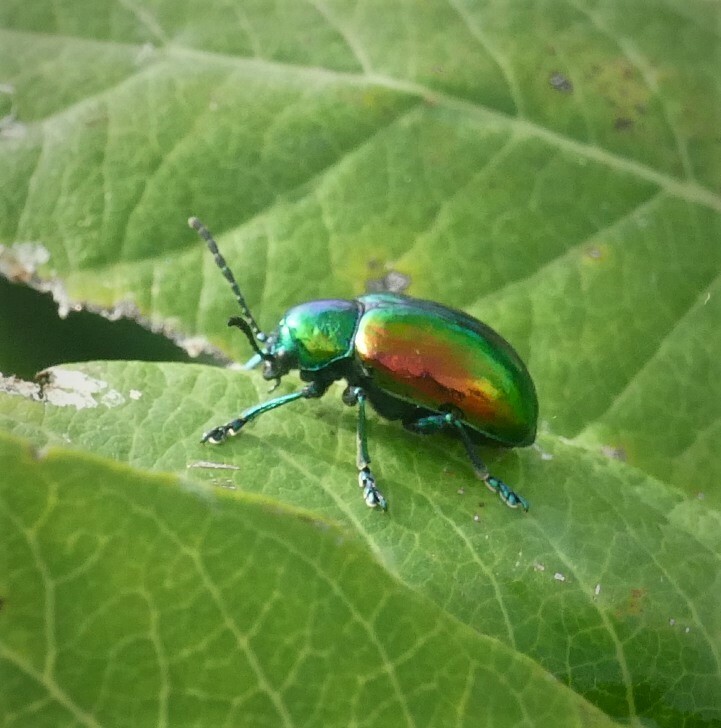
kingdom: Animalia
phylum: Arthropoda
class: Insecta
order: Coleoptera
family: Chrysomelidae
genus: Chrysochus
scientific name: Chrysochus auratus
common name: Dogbane leaf beetle
